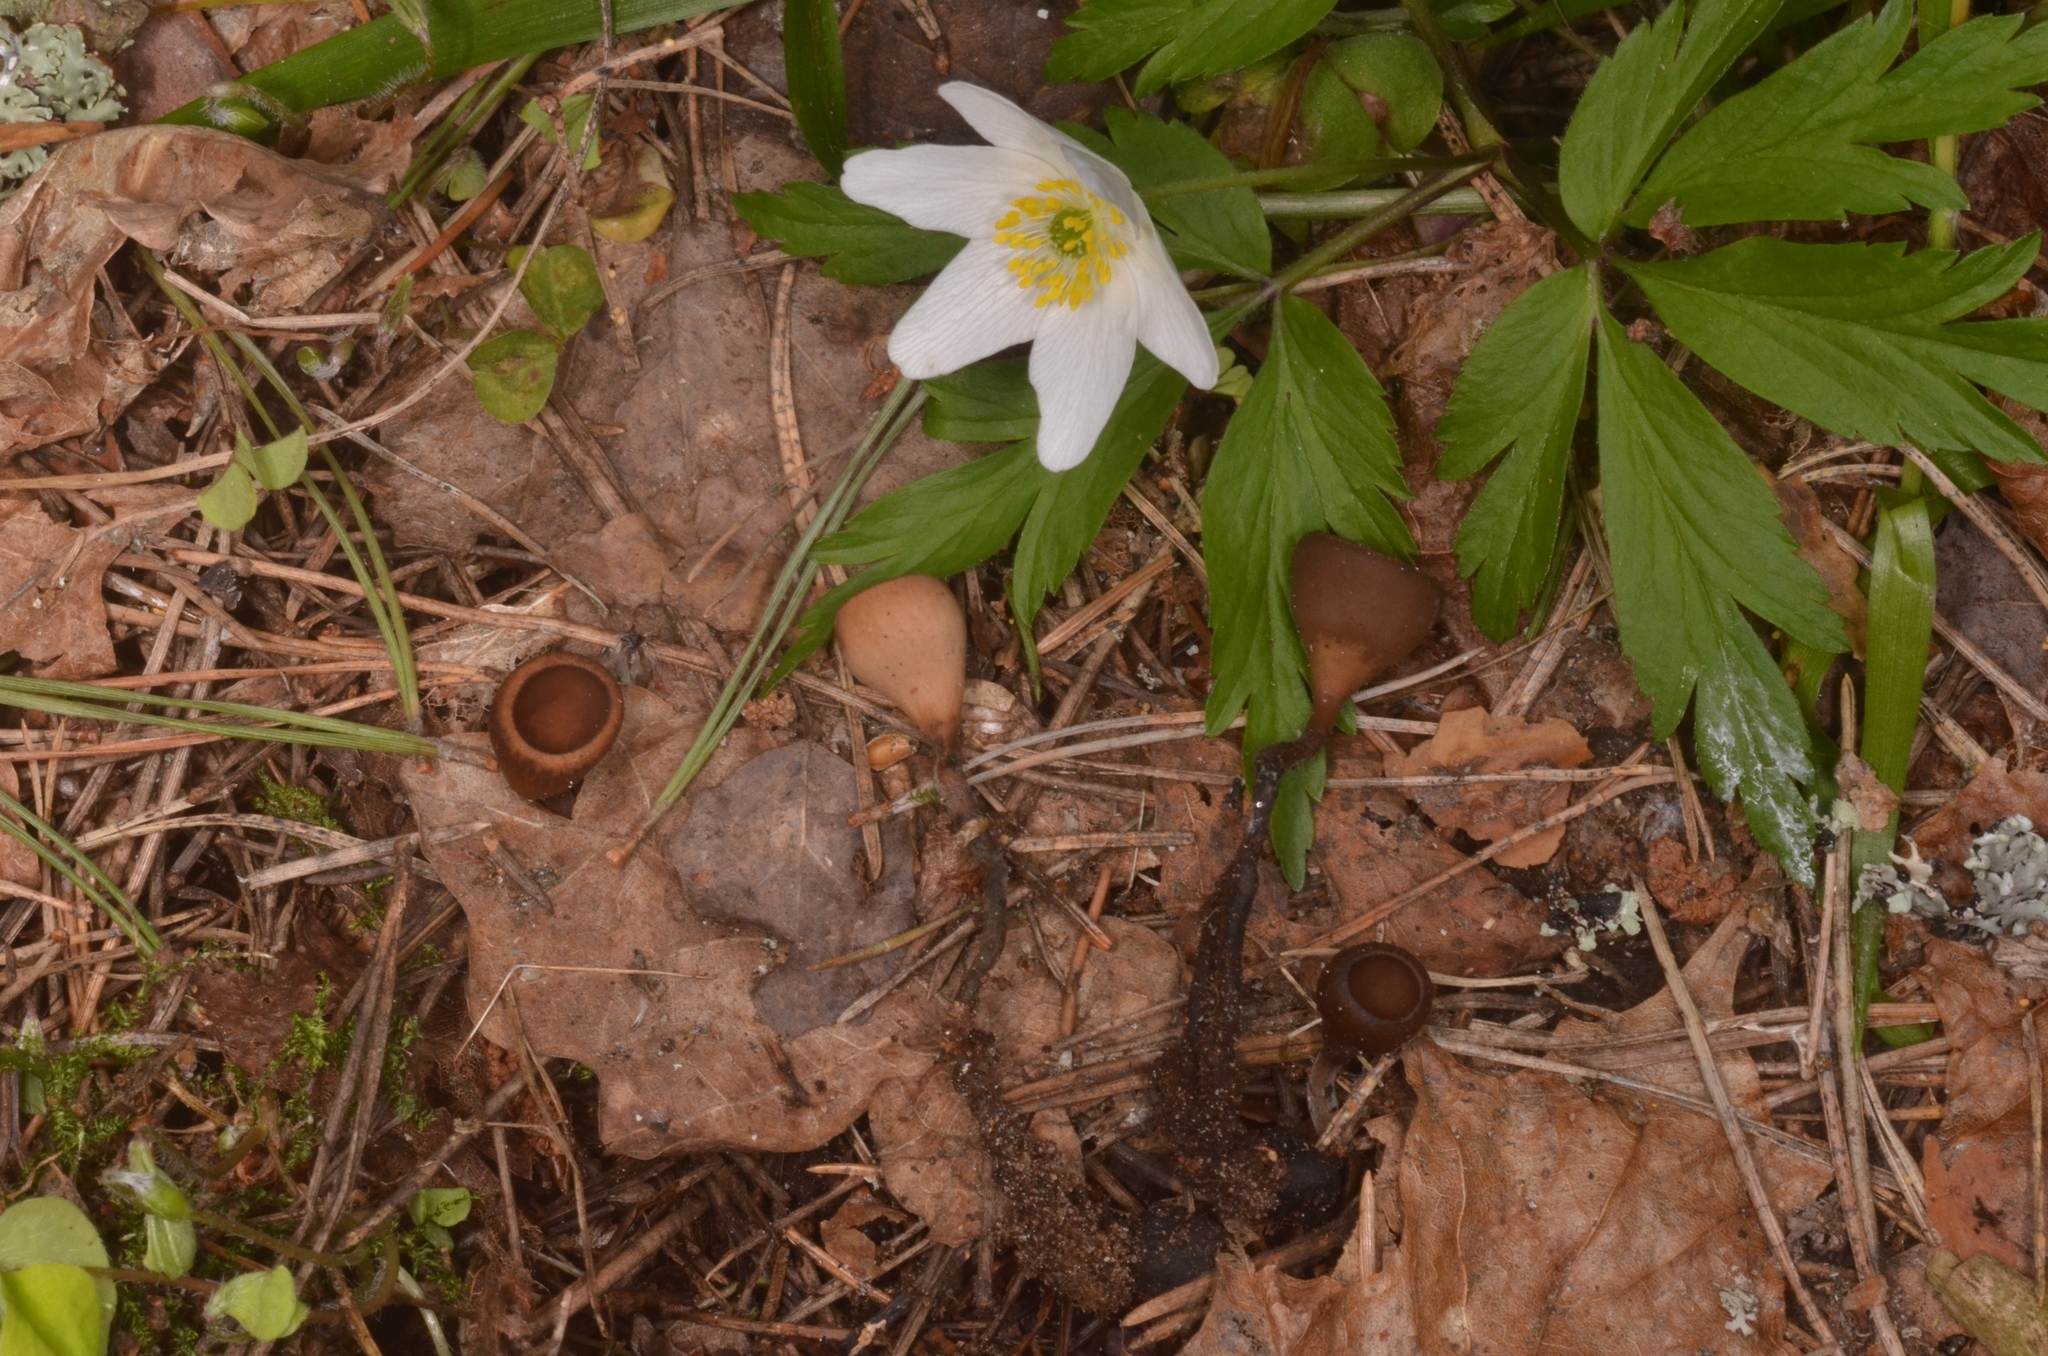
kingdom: Fungi
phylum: Ascomycota
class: Leotiomycetes
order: Helotiales
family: Sclerotiniaceae
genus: Dumontinia
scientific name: Dumontinia tuberosa
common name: Anemone cup
